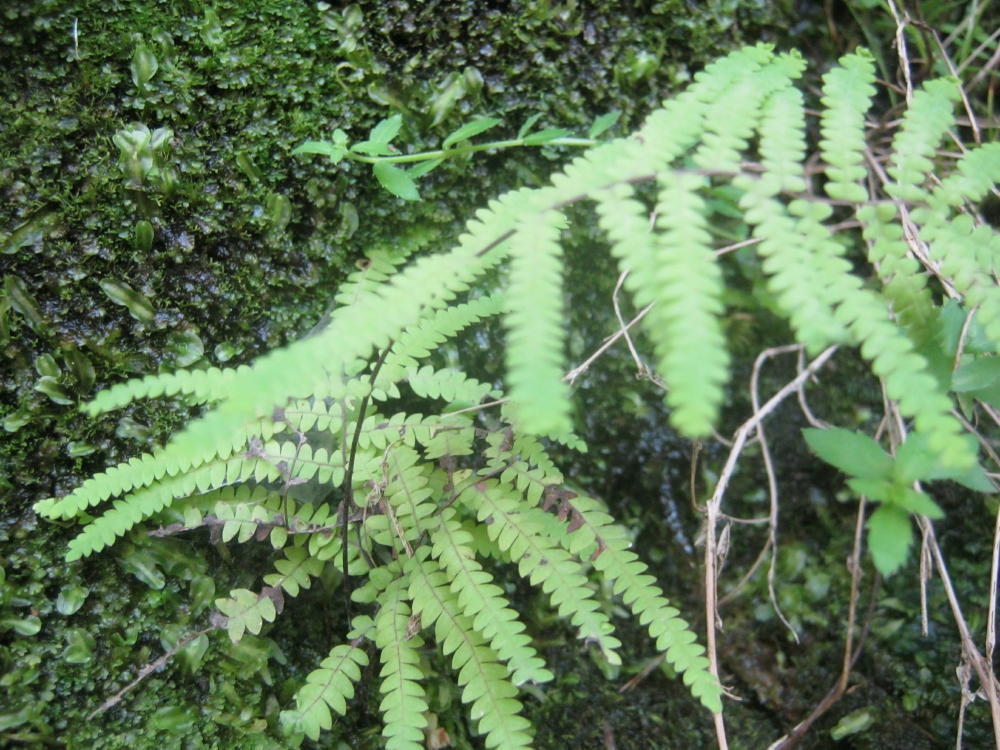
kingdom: Plantae
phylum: Tracheophyta
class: Polypodiopsida
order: Gleicheniales
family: Gleicheniaceae
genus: Gleichenia
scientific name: Gleichenia polypodioides
